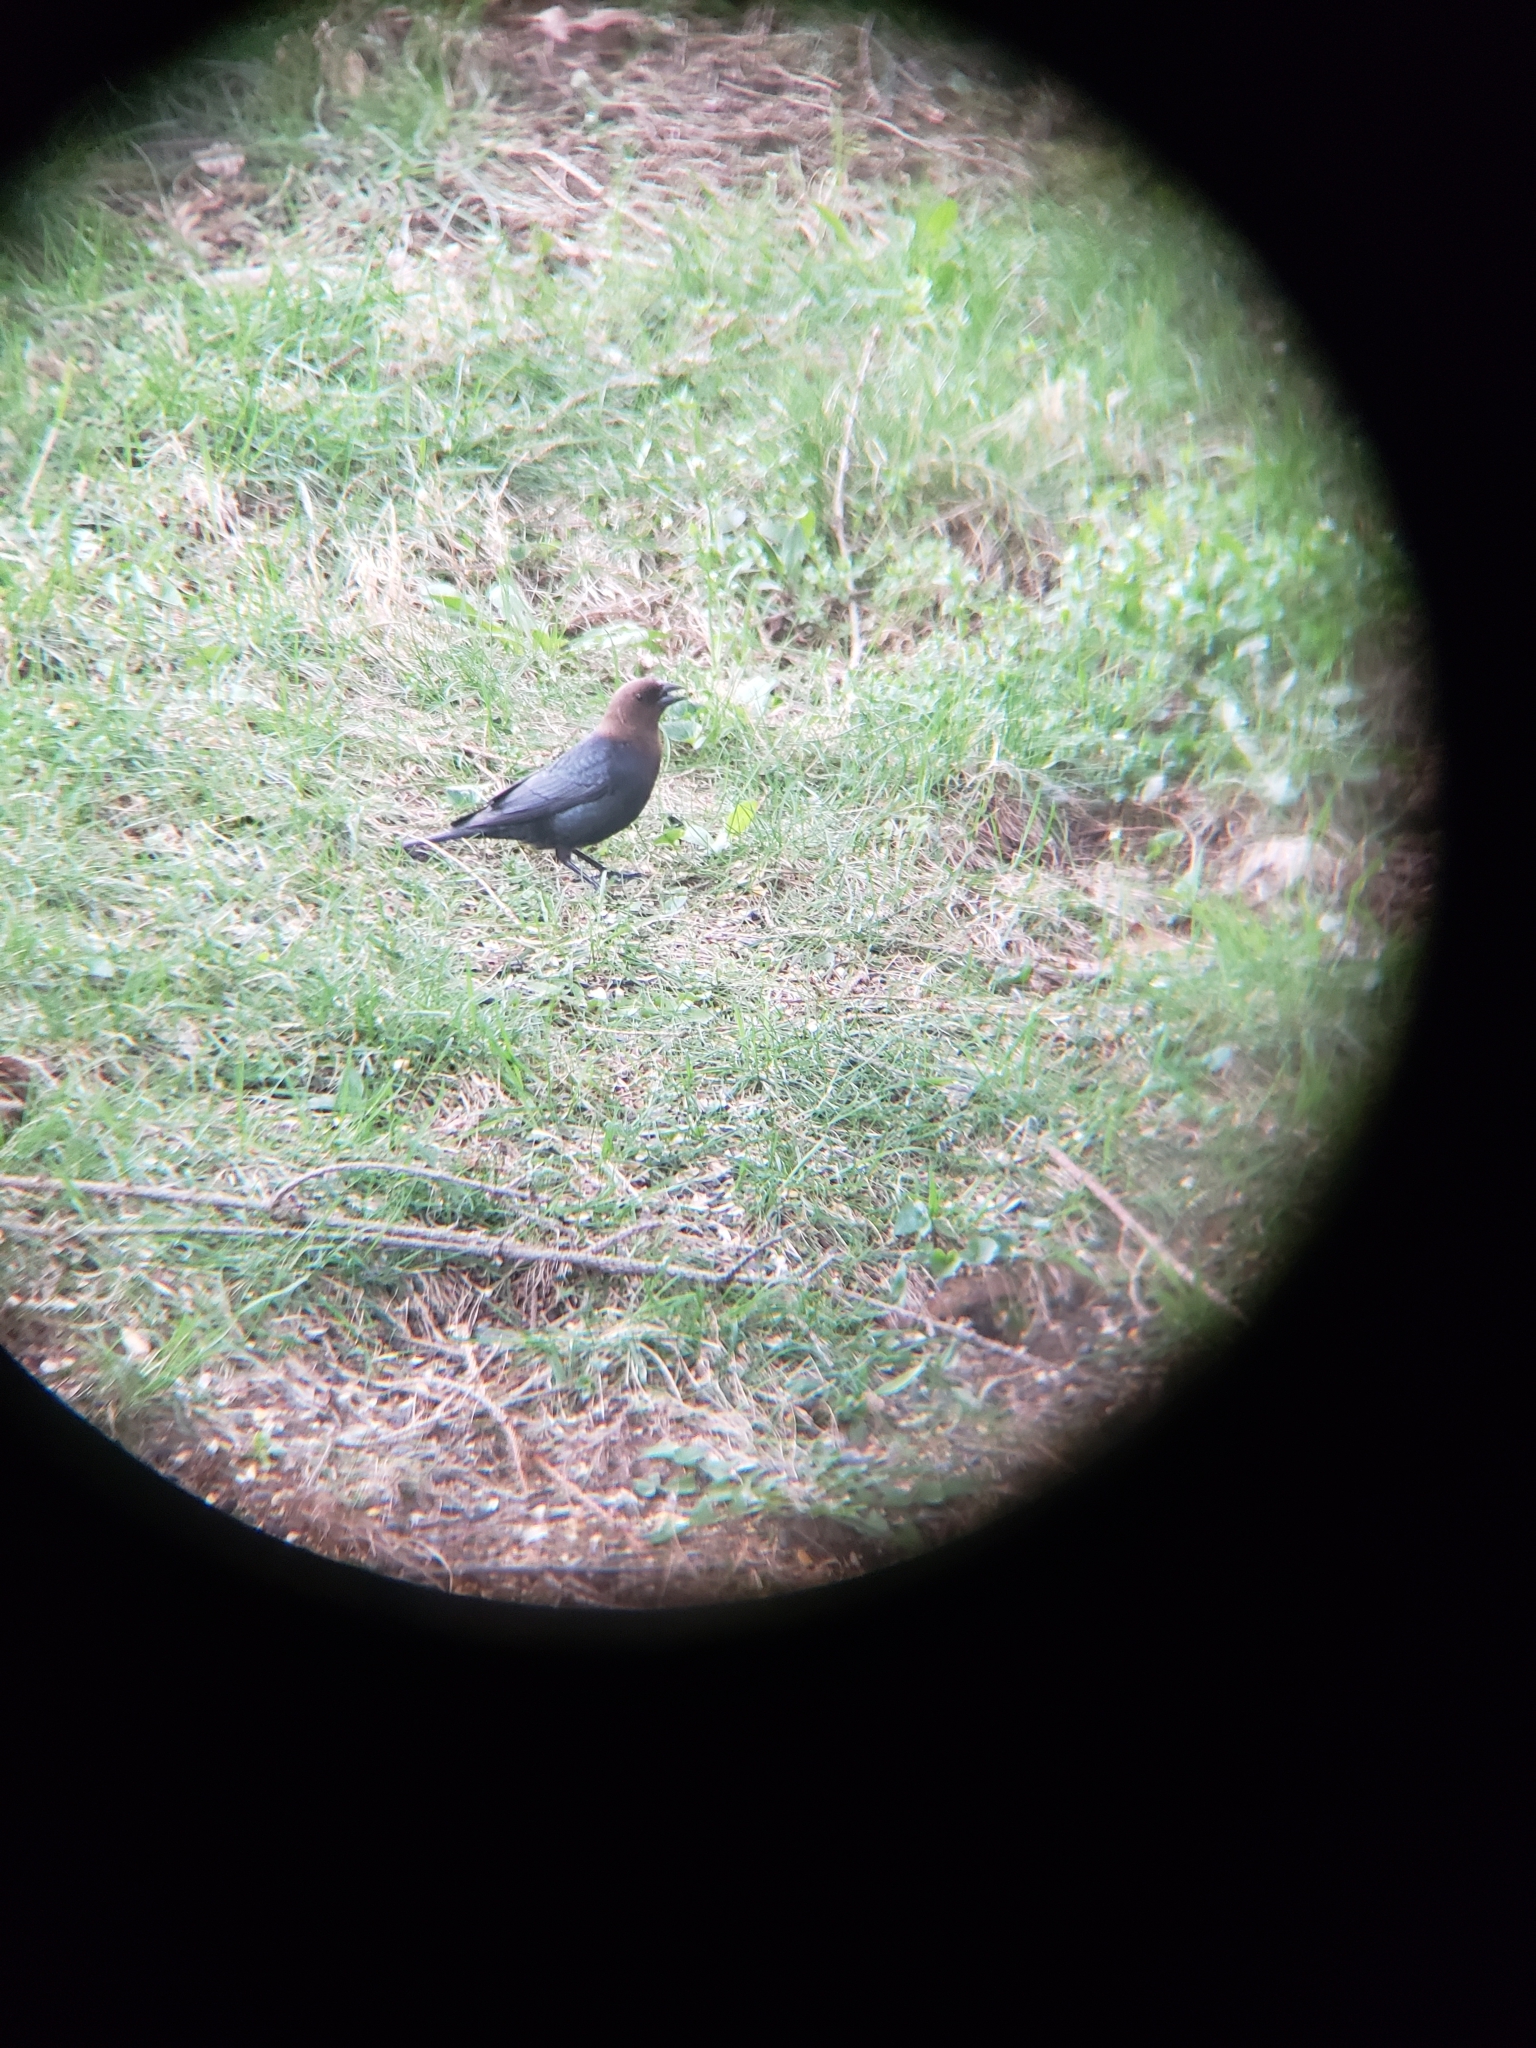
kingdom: Animalia
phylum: Chordata
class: Aves
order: Passeriformes
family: Icteridae
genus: Molothrus
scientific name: Molothrus ater
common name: Brown-headed cowbird
